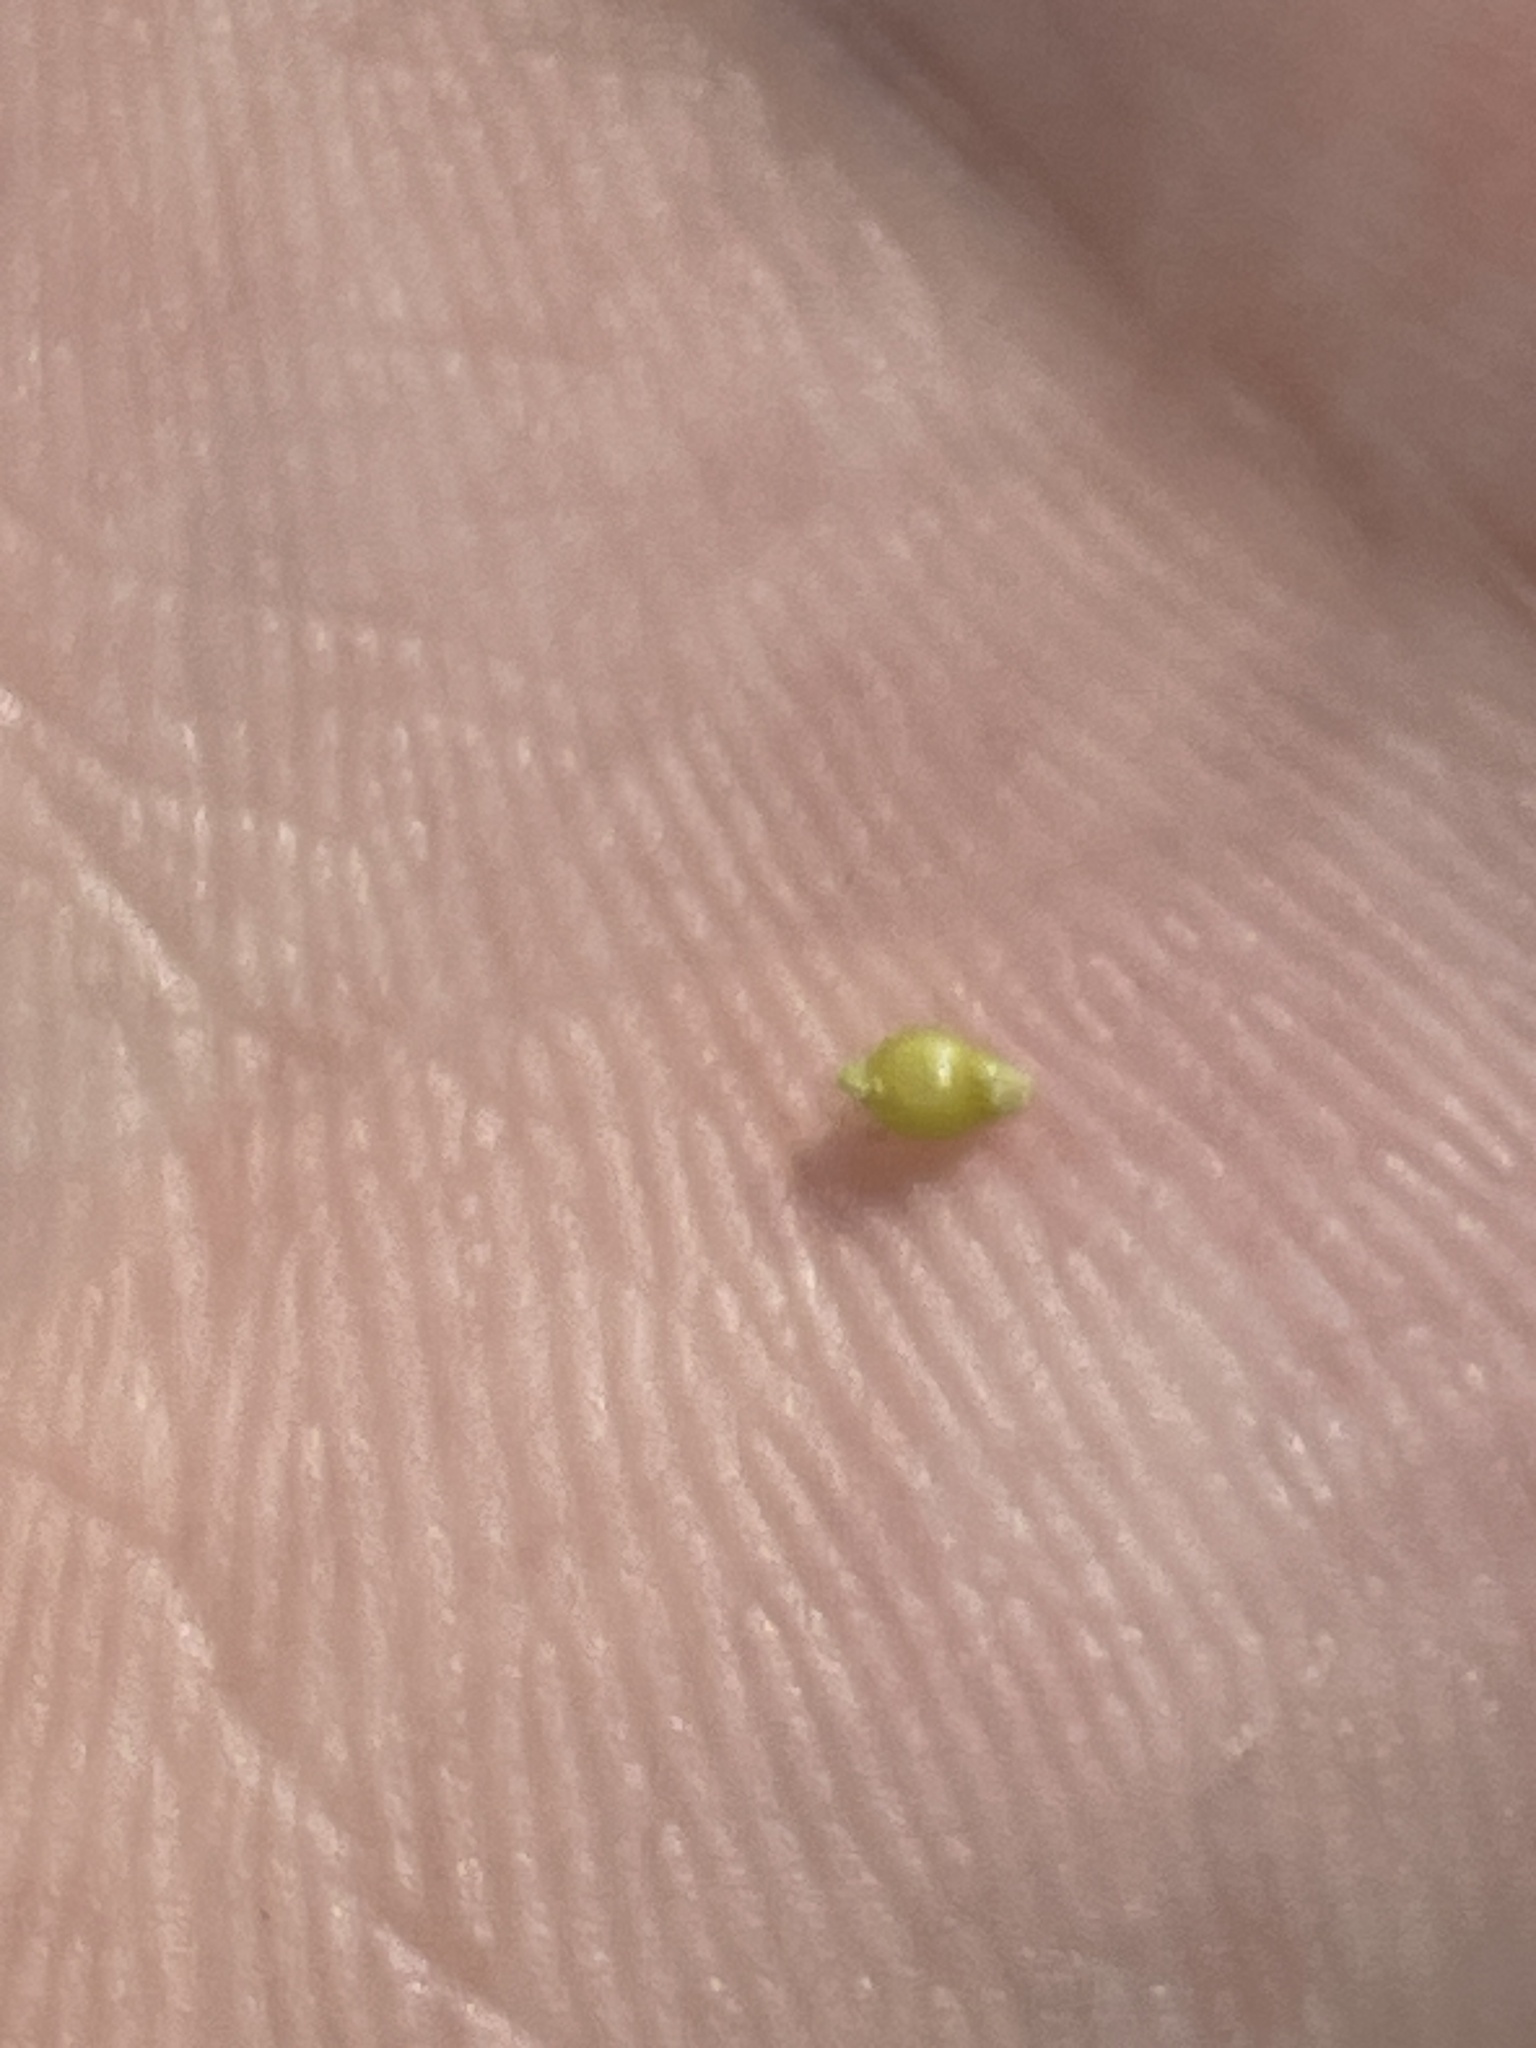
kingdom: Plantae
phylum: Tracheophyta
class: Liliopsida
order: Poales
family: Cyperaceae
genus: Rhynchospora
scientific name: Rhynchospora fascicularis
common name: Fascicled beak sedge
